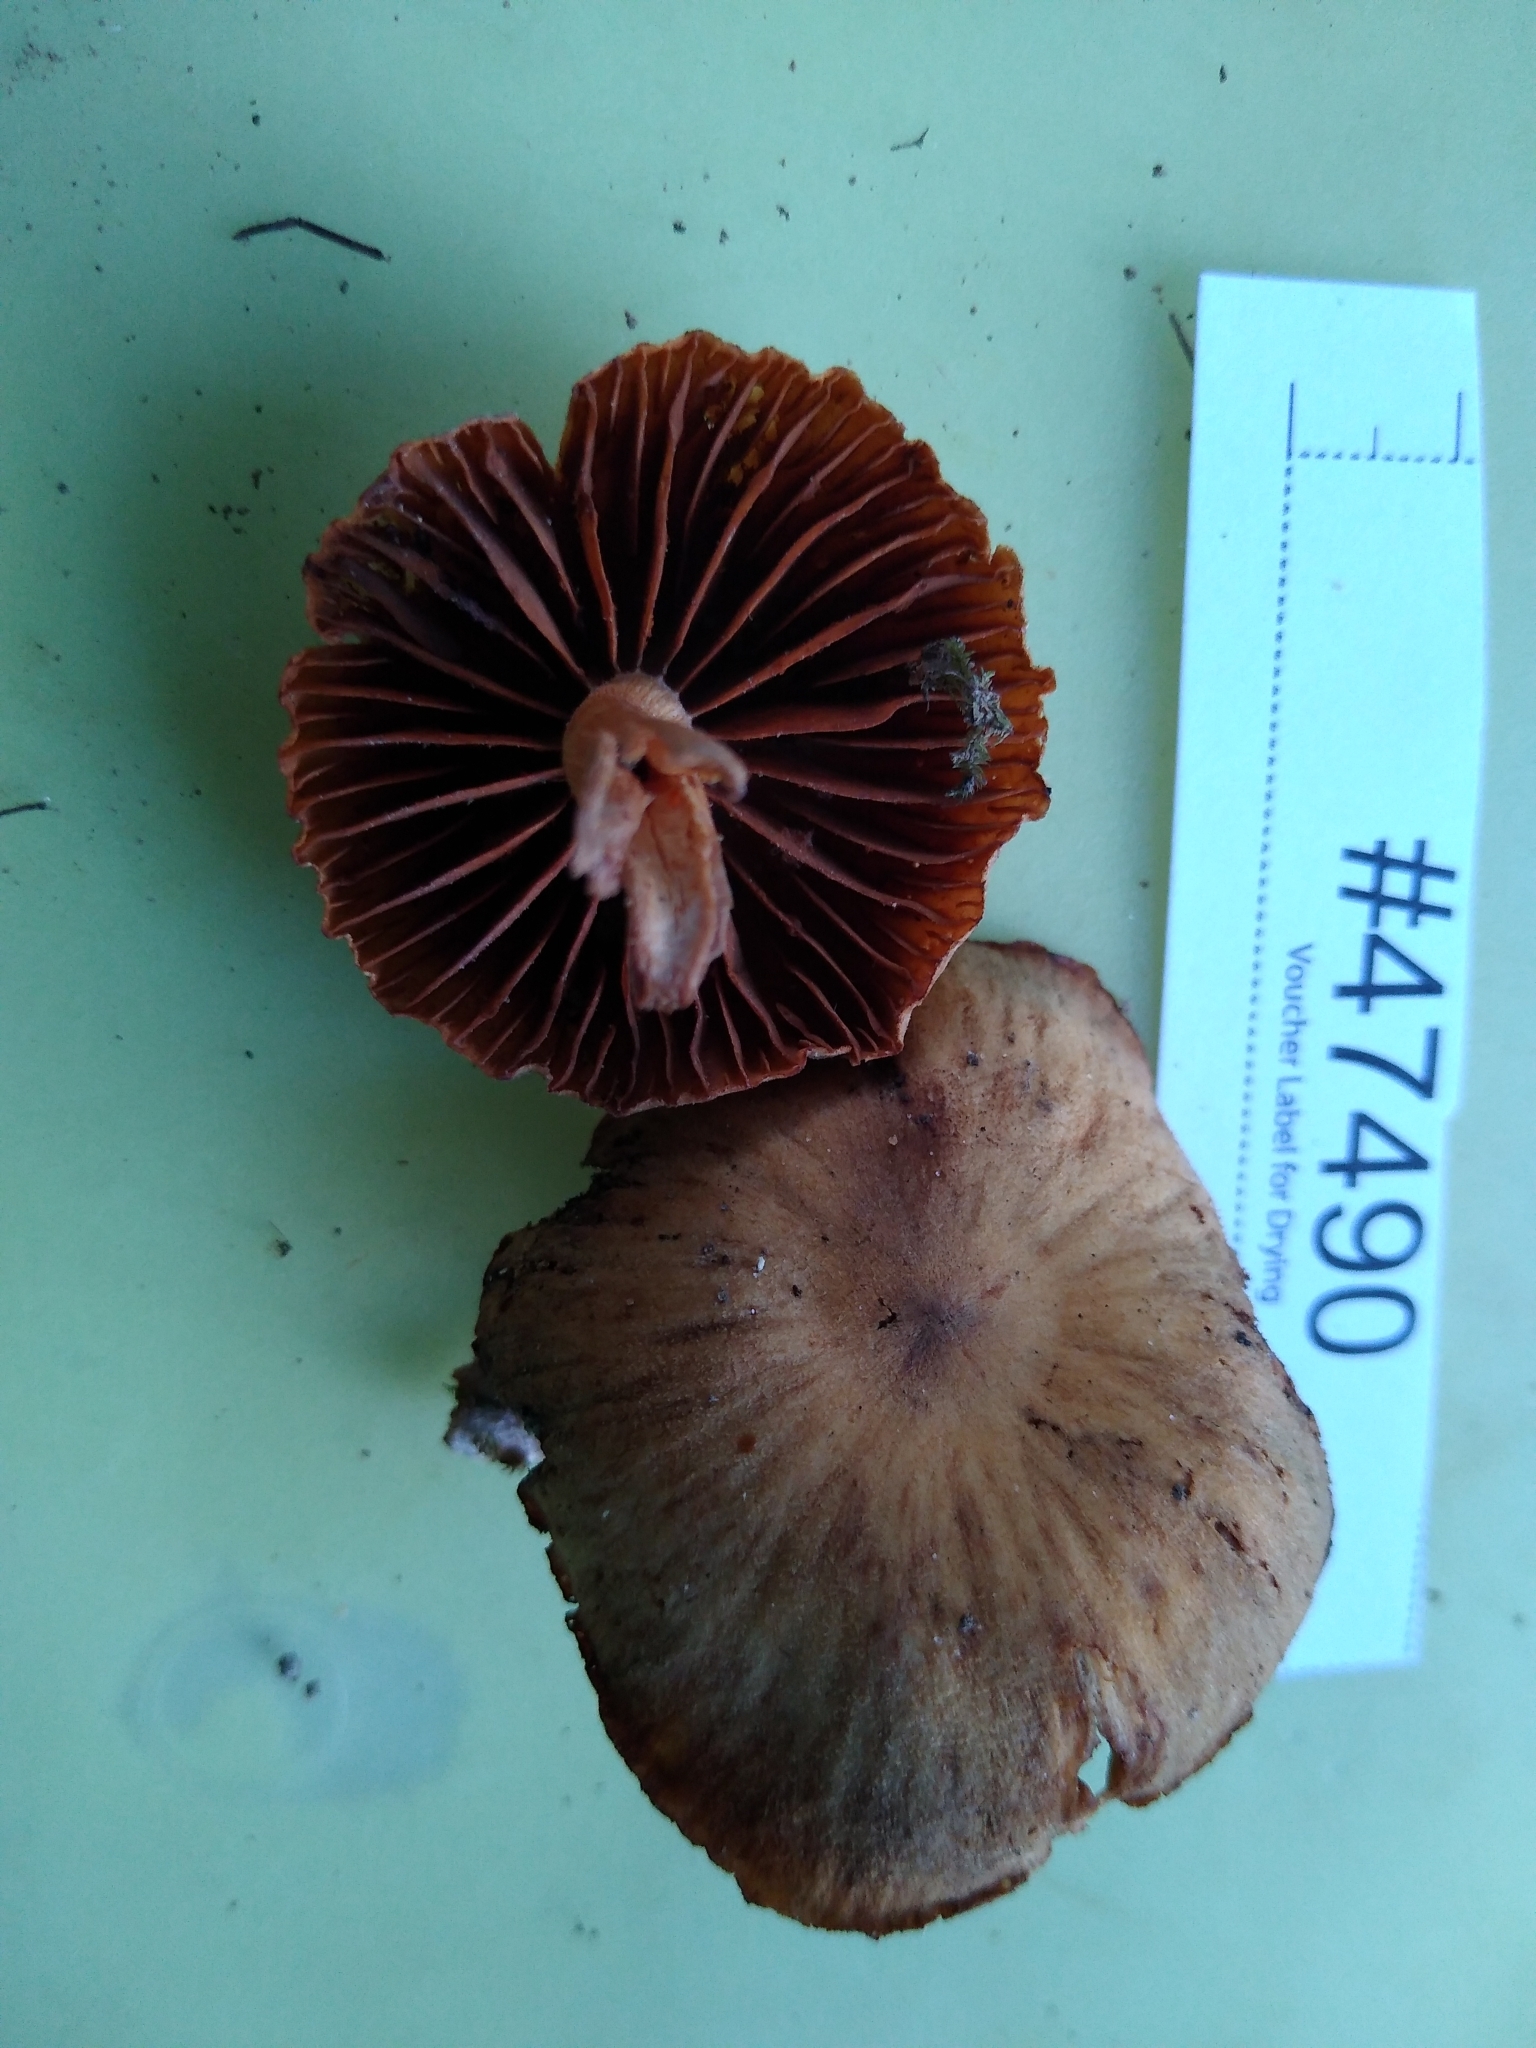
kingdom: Fungi
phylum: Basidiomycota
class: Agaricomycetes
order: Agaricales
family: Cortinariaceae
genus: Cortinarius
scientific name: Cortinarius
